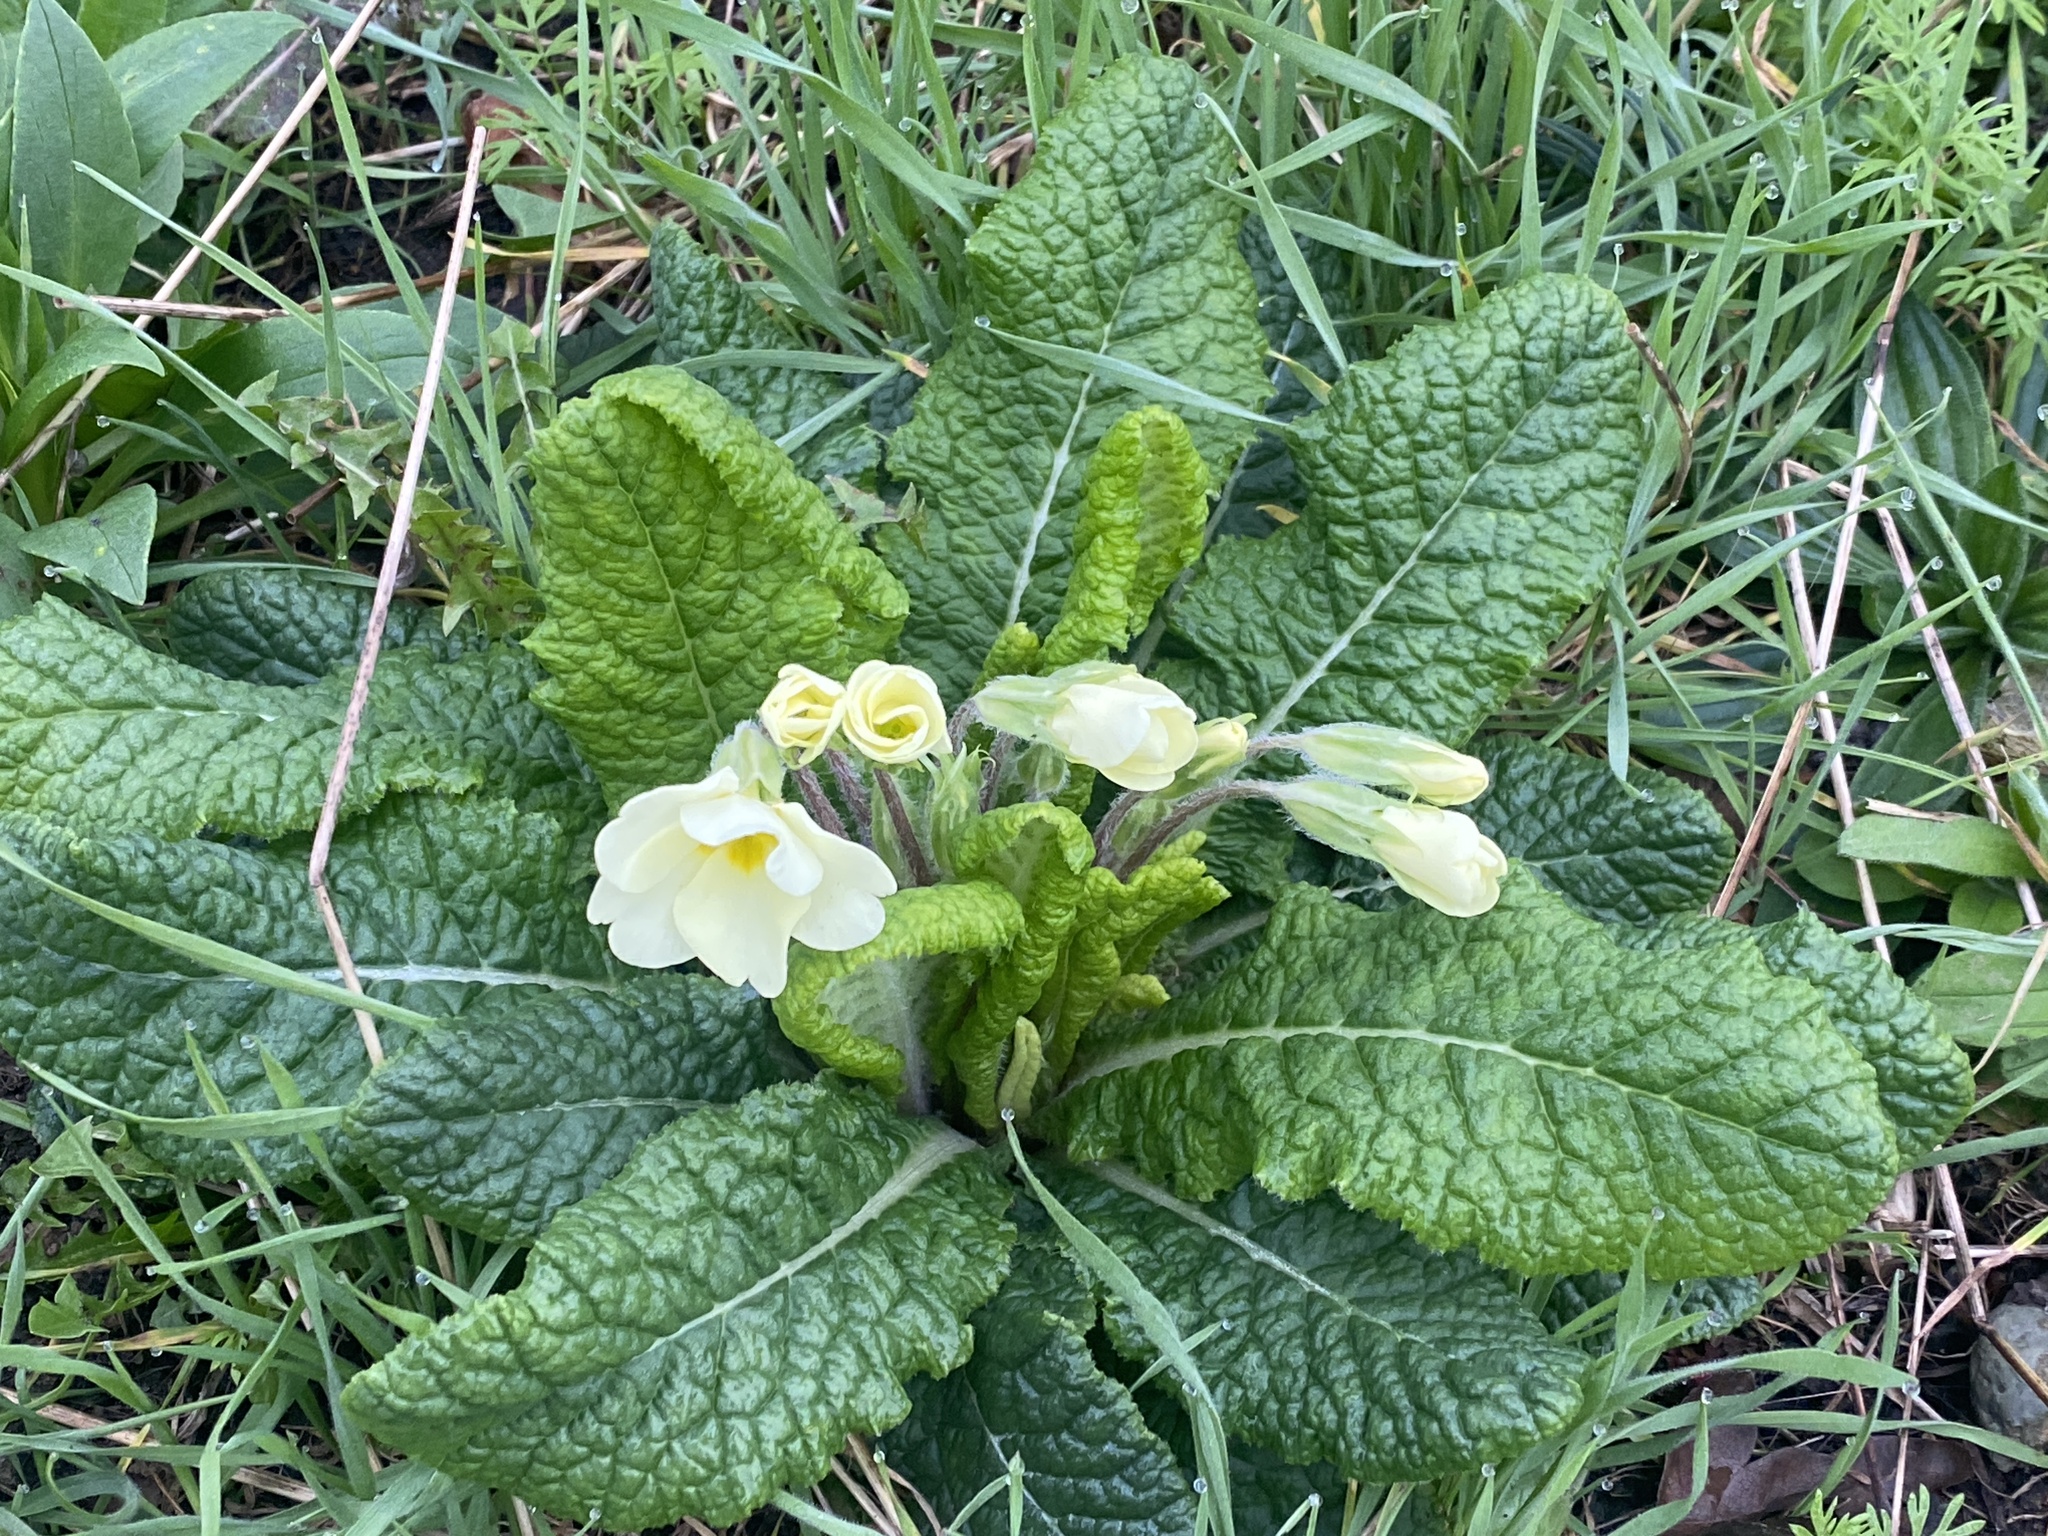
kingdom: Plantae
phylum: Tracheophyta
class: Magnoliopsida
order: Ericales
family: Primulaceae
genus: Primula
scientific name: Primula vulgaris
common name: Primrose
